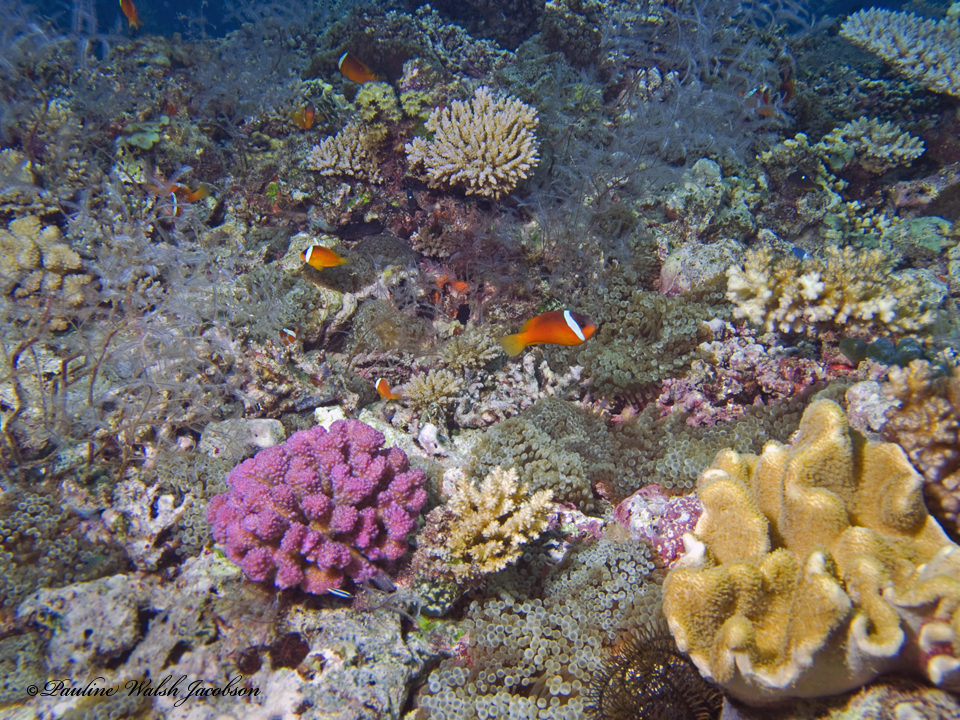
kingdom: Animalia
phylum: Chordata
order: Perciformes
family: Pomacentridae
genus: Amphiprion
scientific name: Amphiprion barberi
